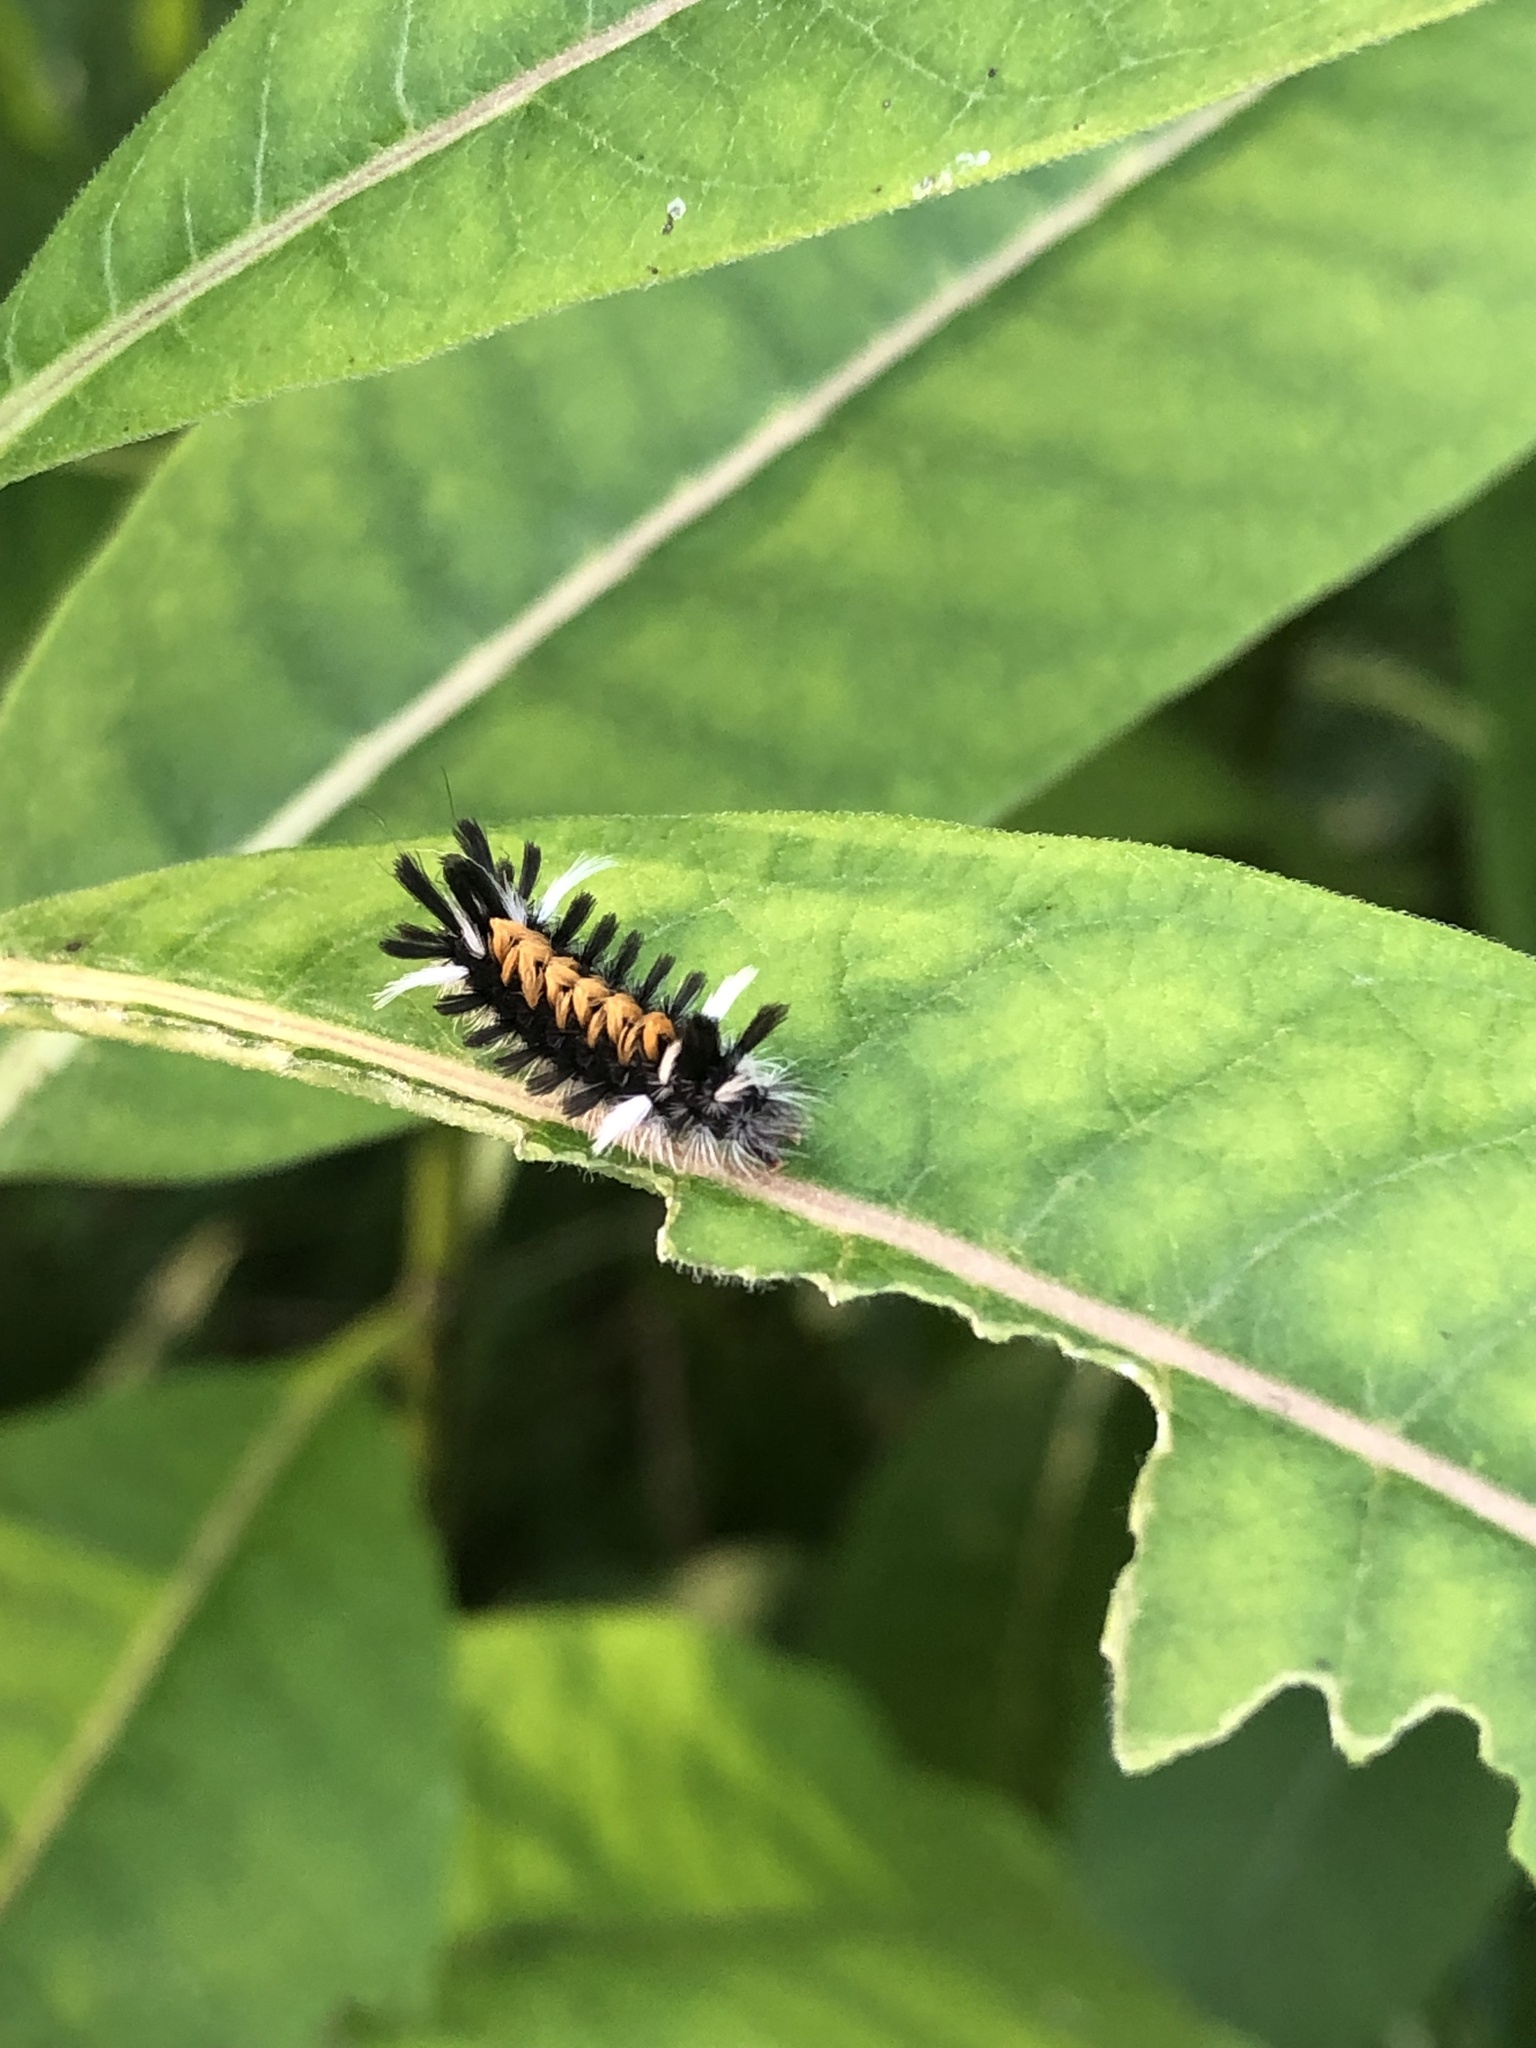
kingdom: Animalia
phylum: Arthropoda
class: Insecta
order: Lepidoptera
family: Erebidae
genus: Euchaetes
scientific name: Euchaetes egle
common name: Milkweed tussock moth
